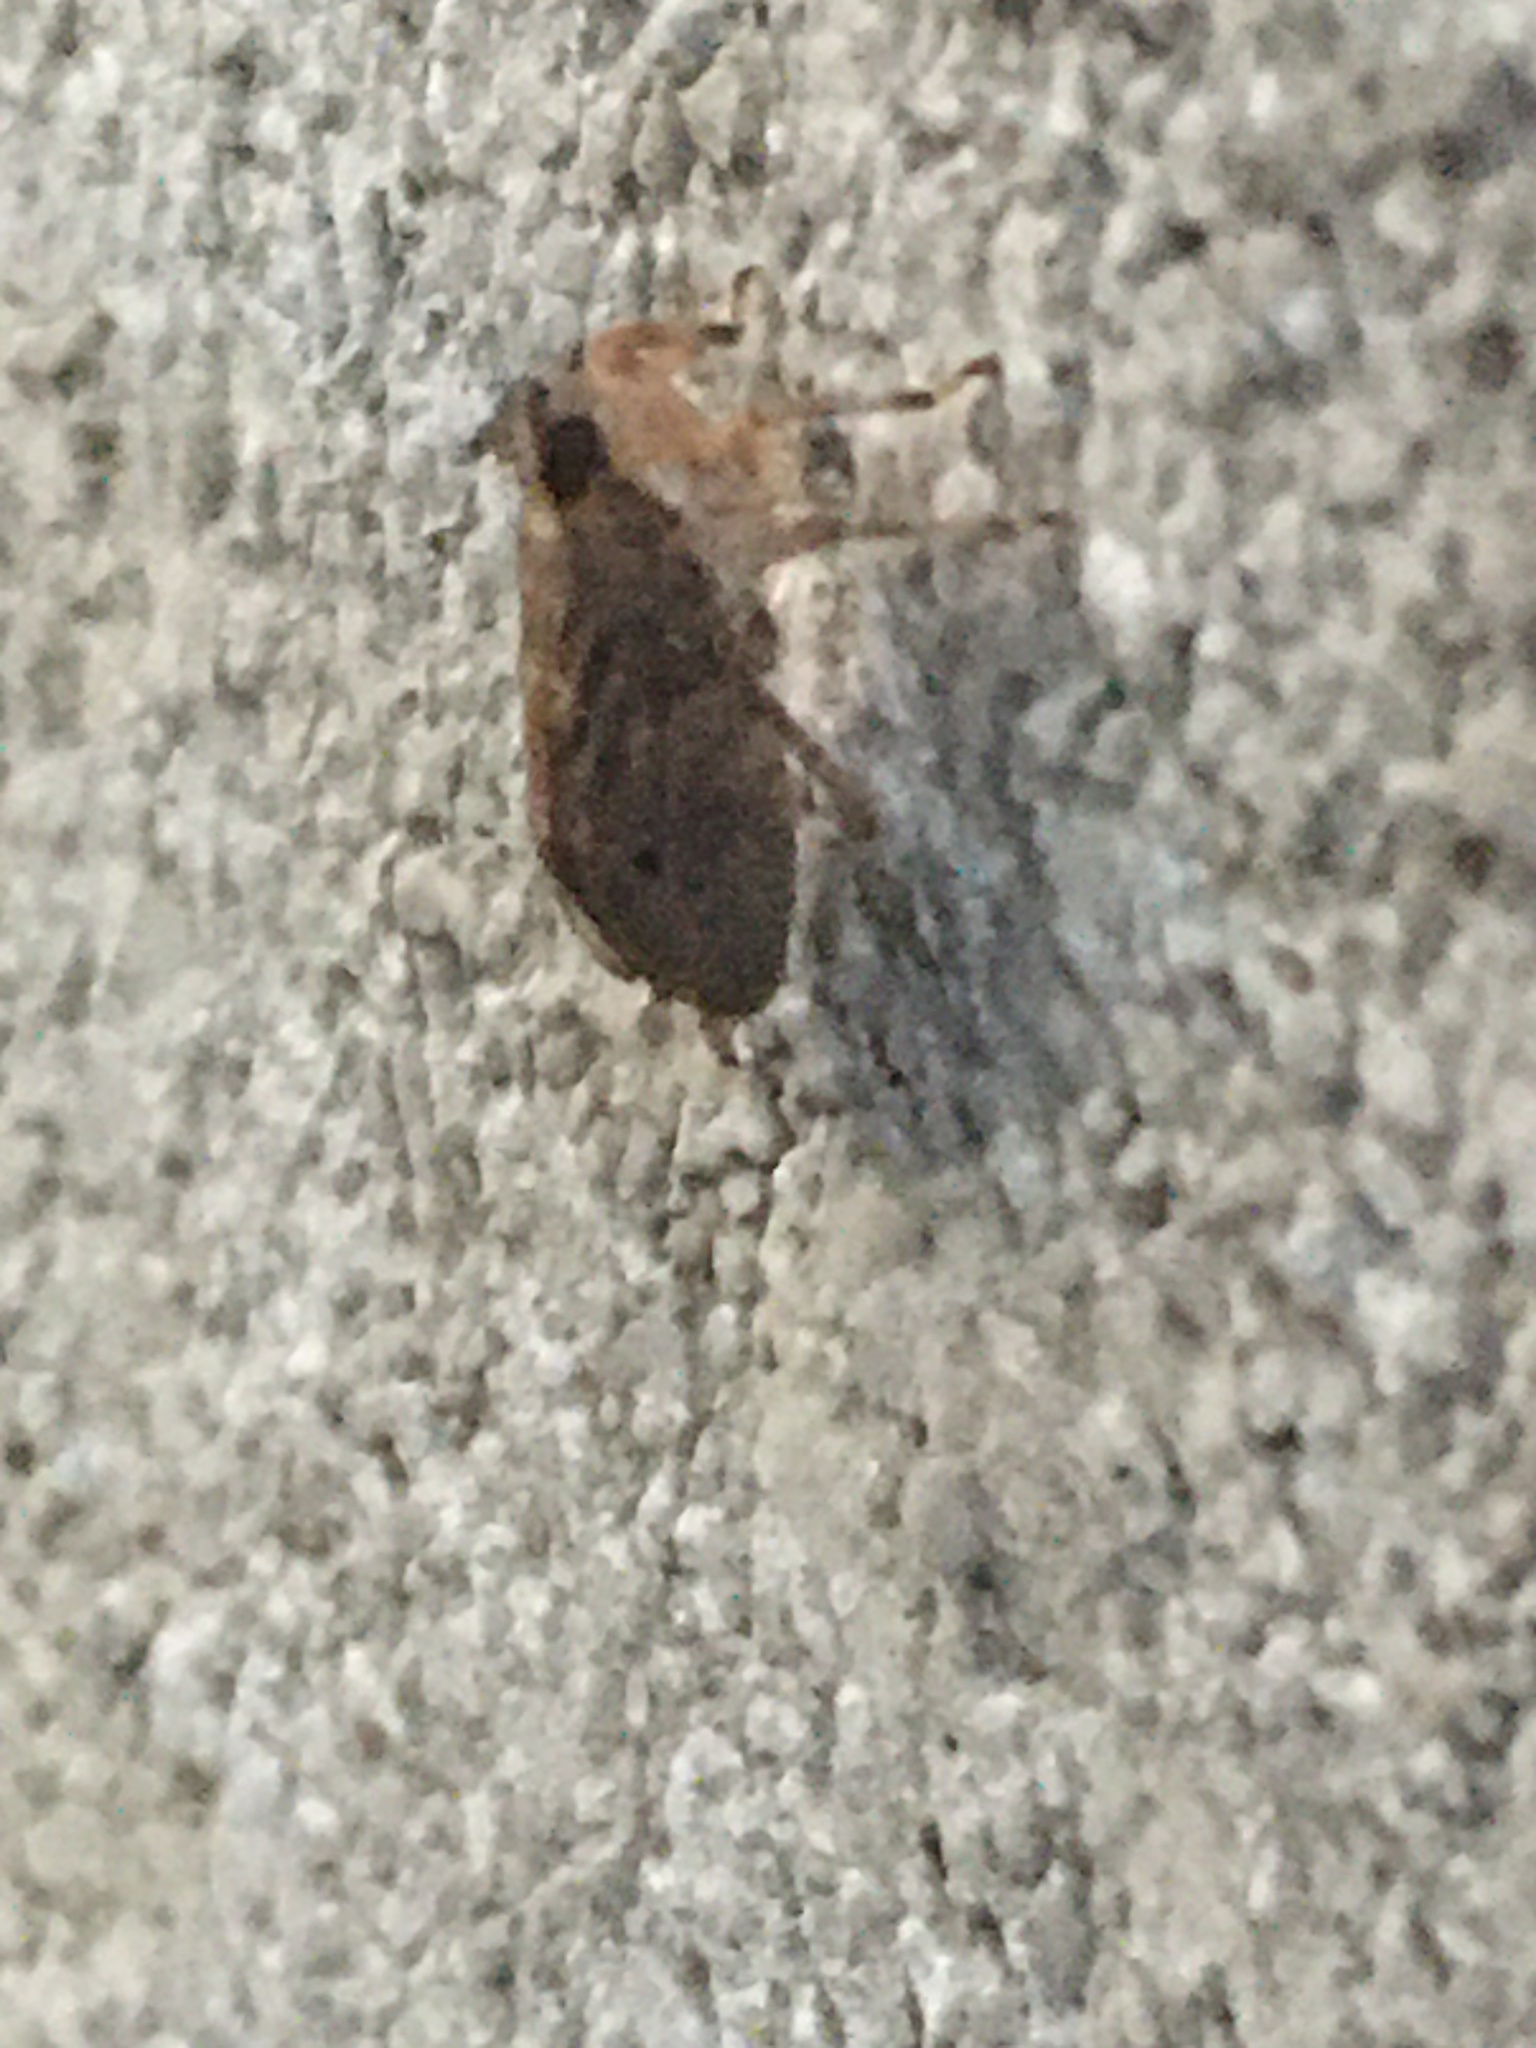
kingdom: Animalia
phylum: Arthropoda
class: Insecta
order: Hemiptera
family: Issidae
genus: Issus
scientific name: Issus coleoptratus
